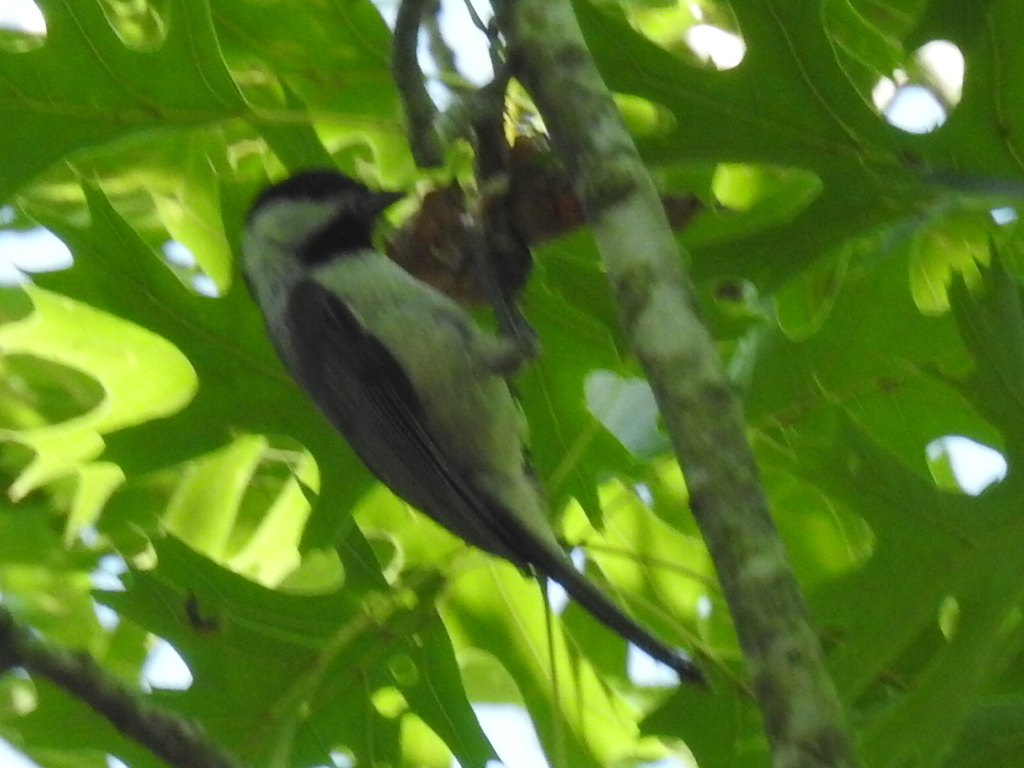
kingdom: Animalia
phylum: Chordata
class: Aves
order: Passeriformes
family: Paridae
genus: Poecile
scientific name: Poecile carolinensis
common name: Carolina chickadee
